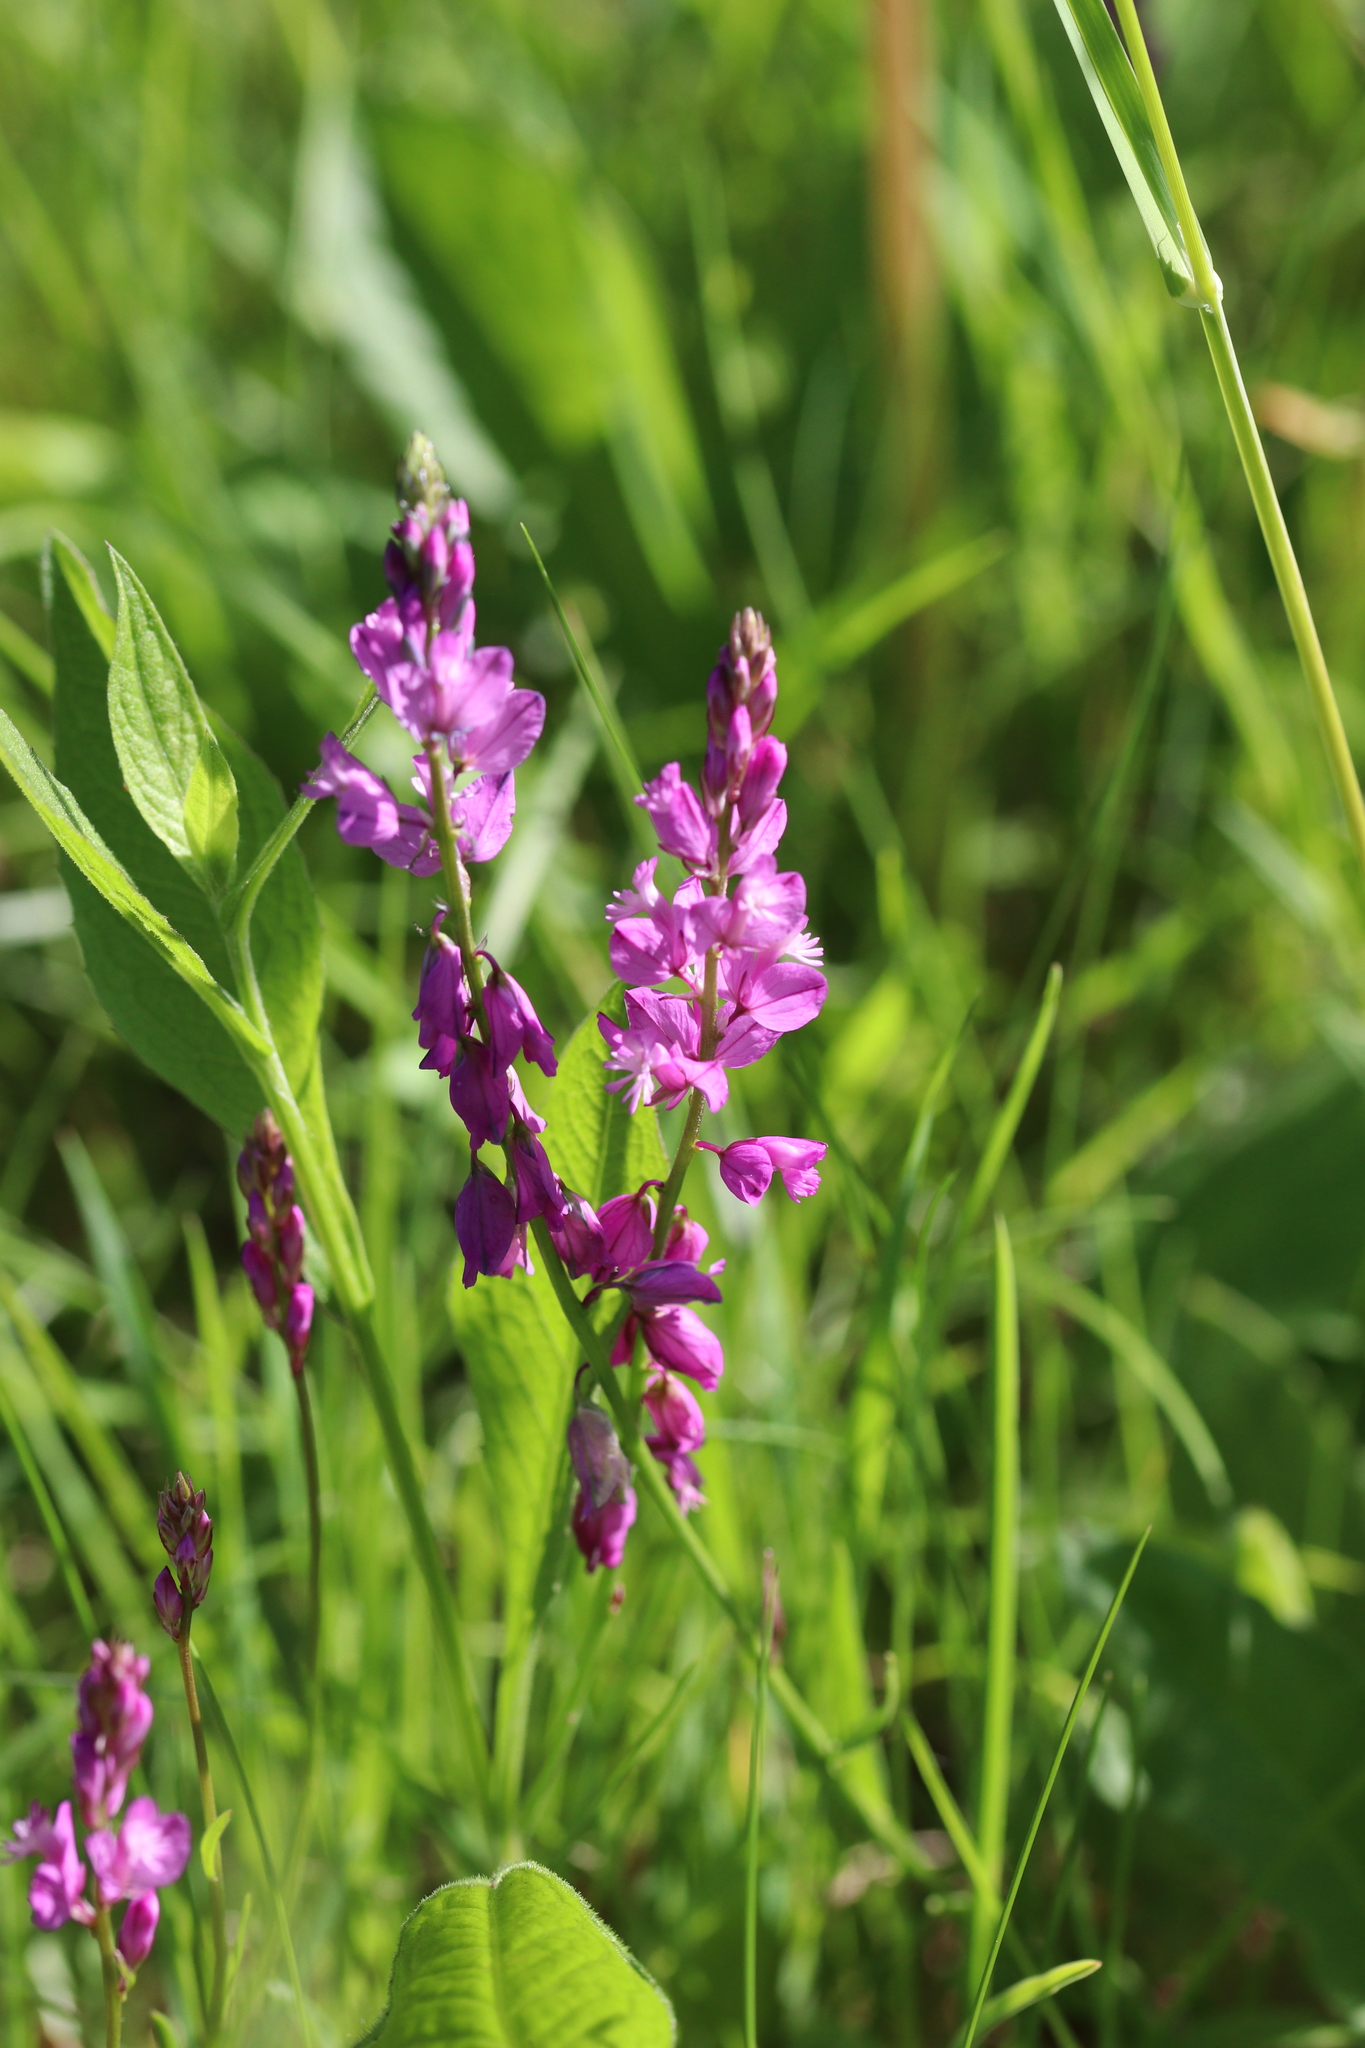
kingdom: Plantae
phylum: Tracheophyta
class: Magnoliopsida
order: Fabales
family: Polygalaceae
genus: Polygala
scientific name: Polygala nicaeensis
